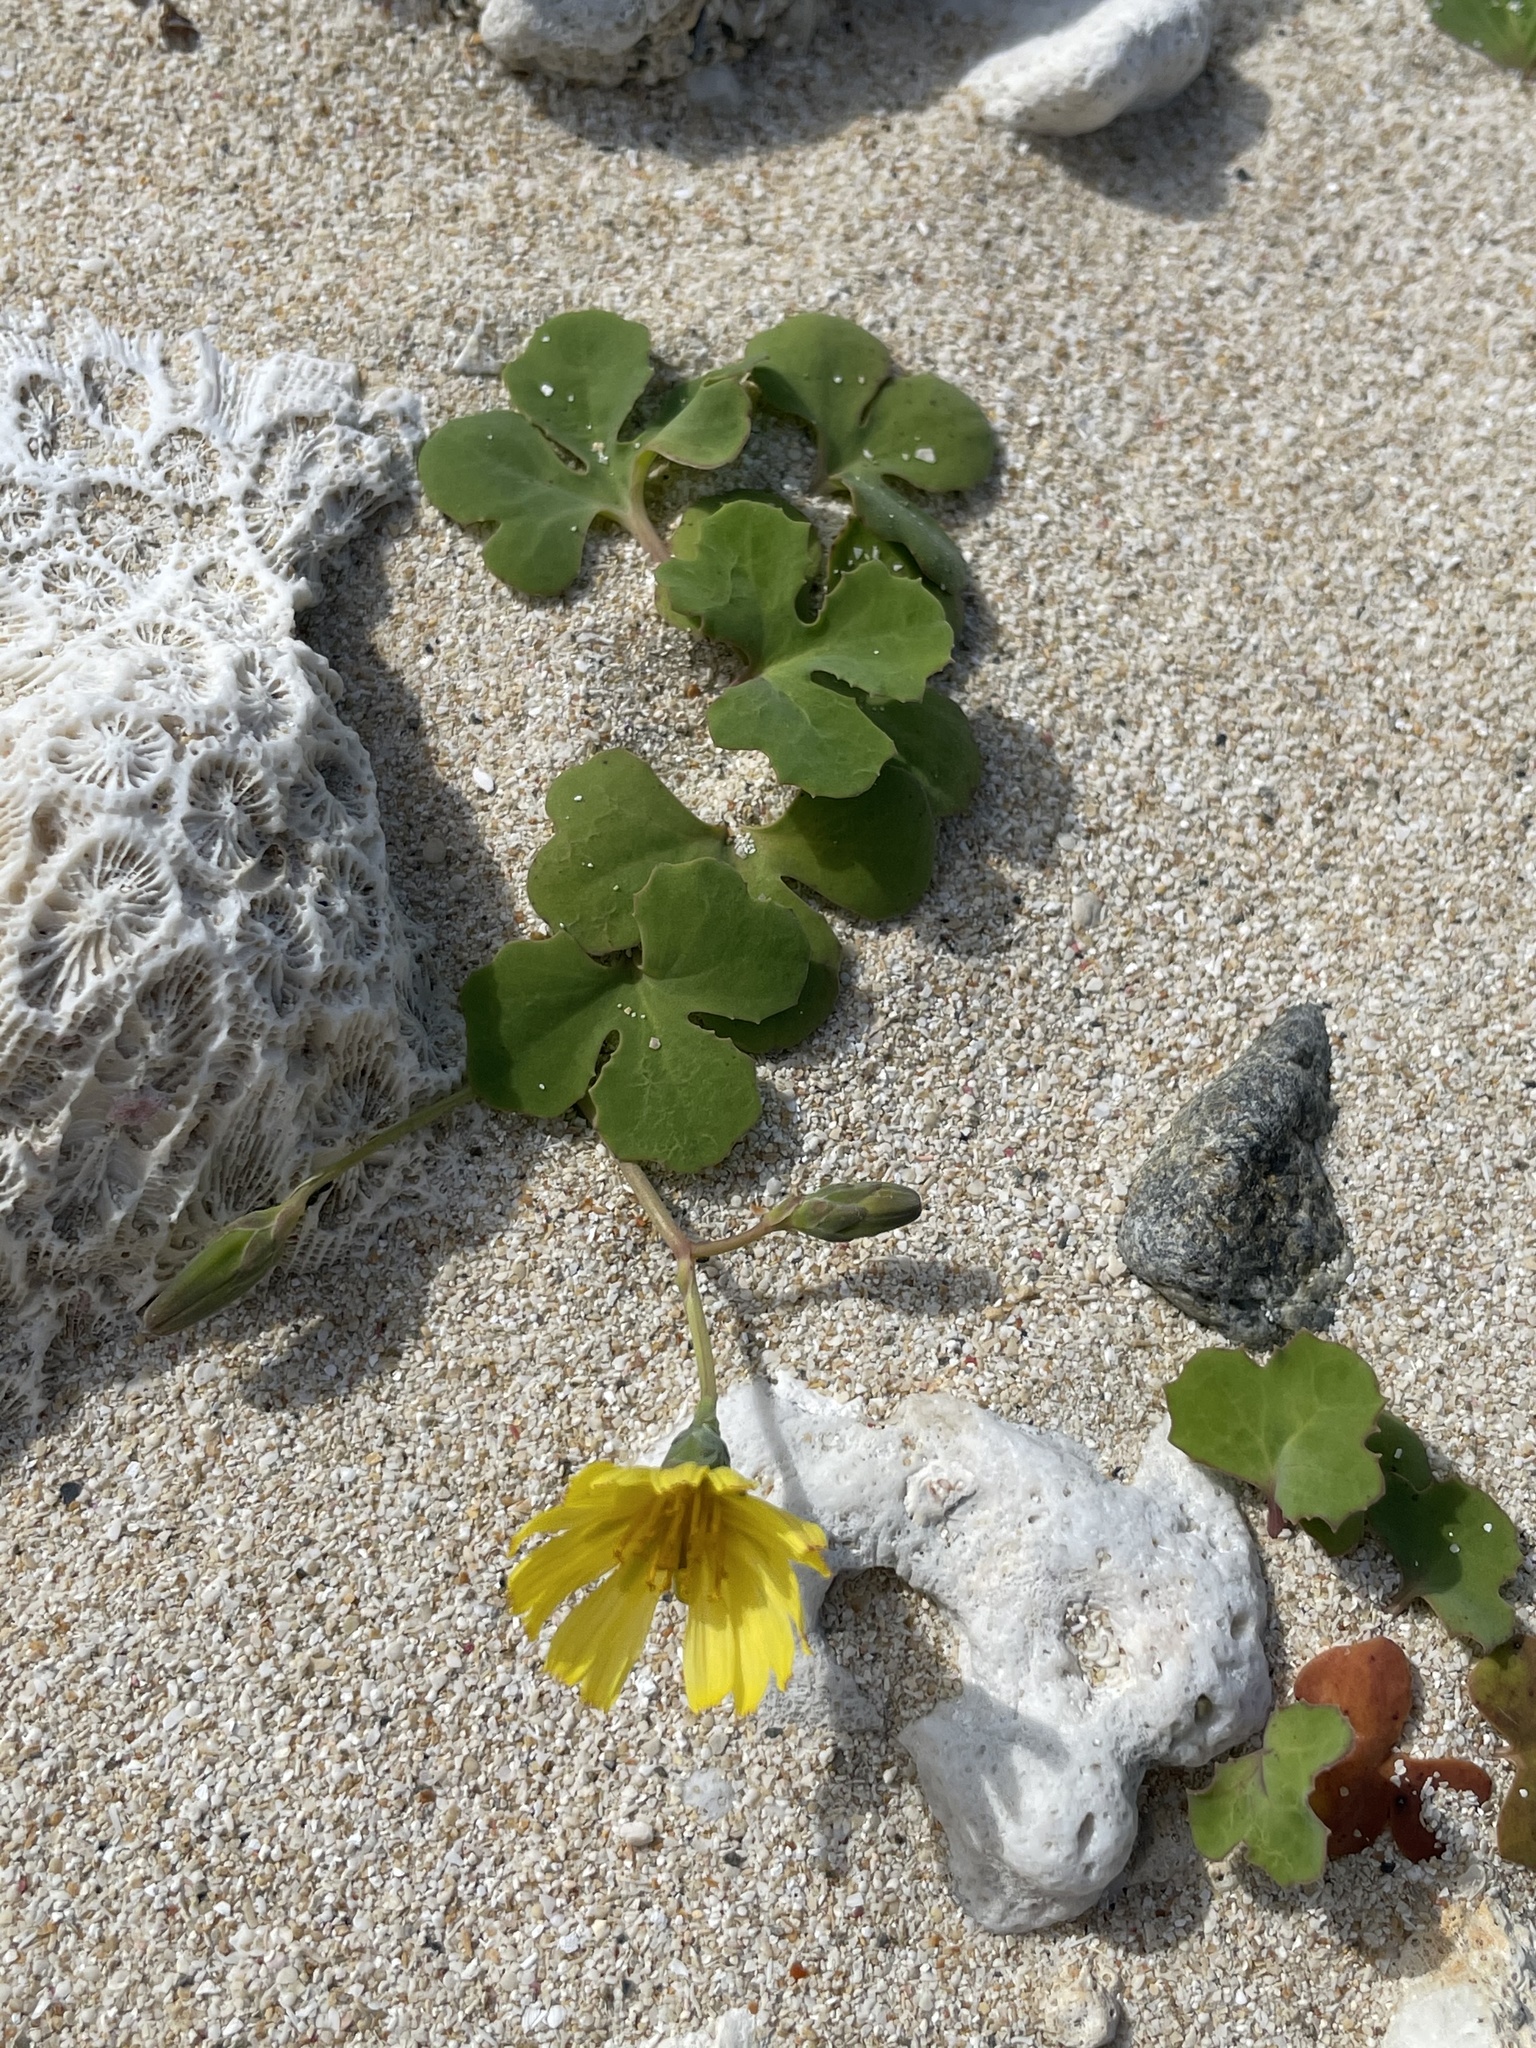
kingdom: Plantae
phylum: Tracheophyta
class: Magnoliopsida
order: Asterales
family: Asteraceae
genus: Ixeris
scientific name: Ixeris repens
